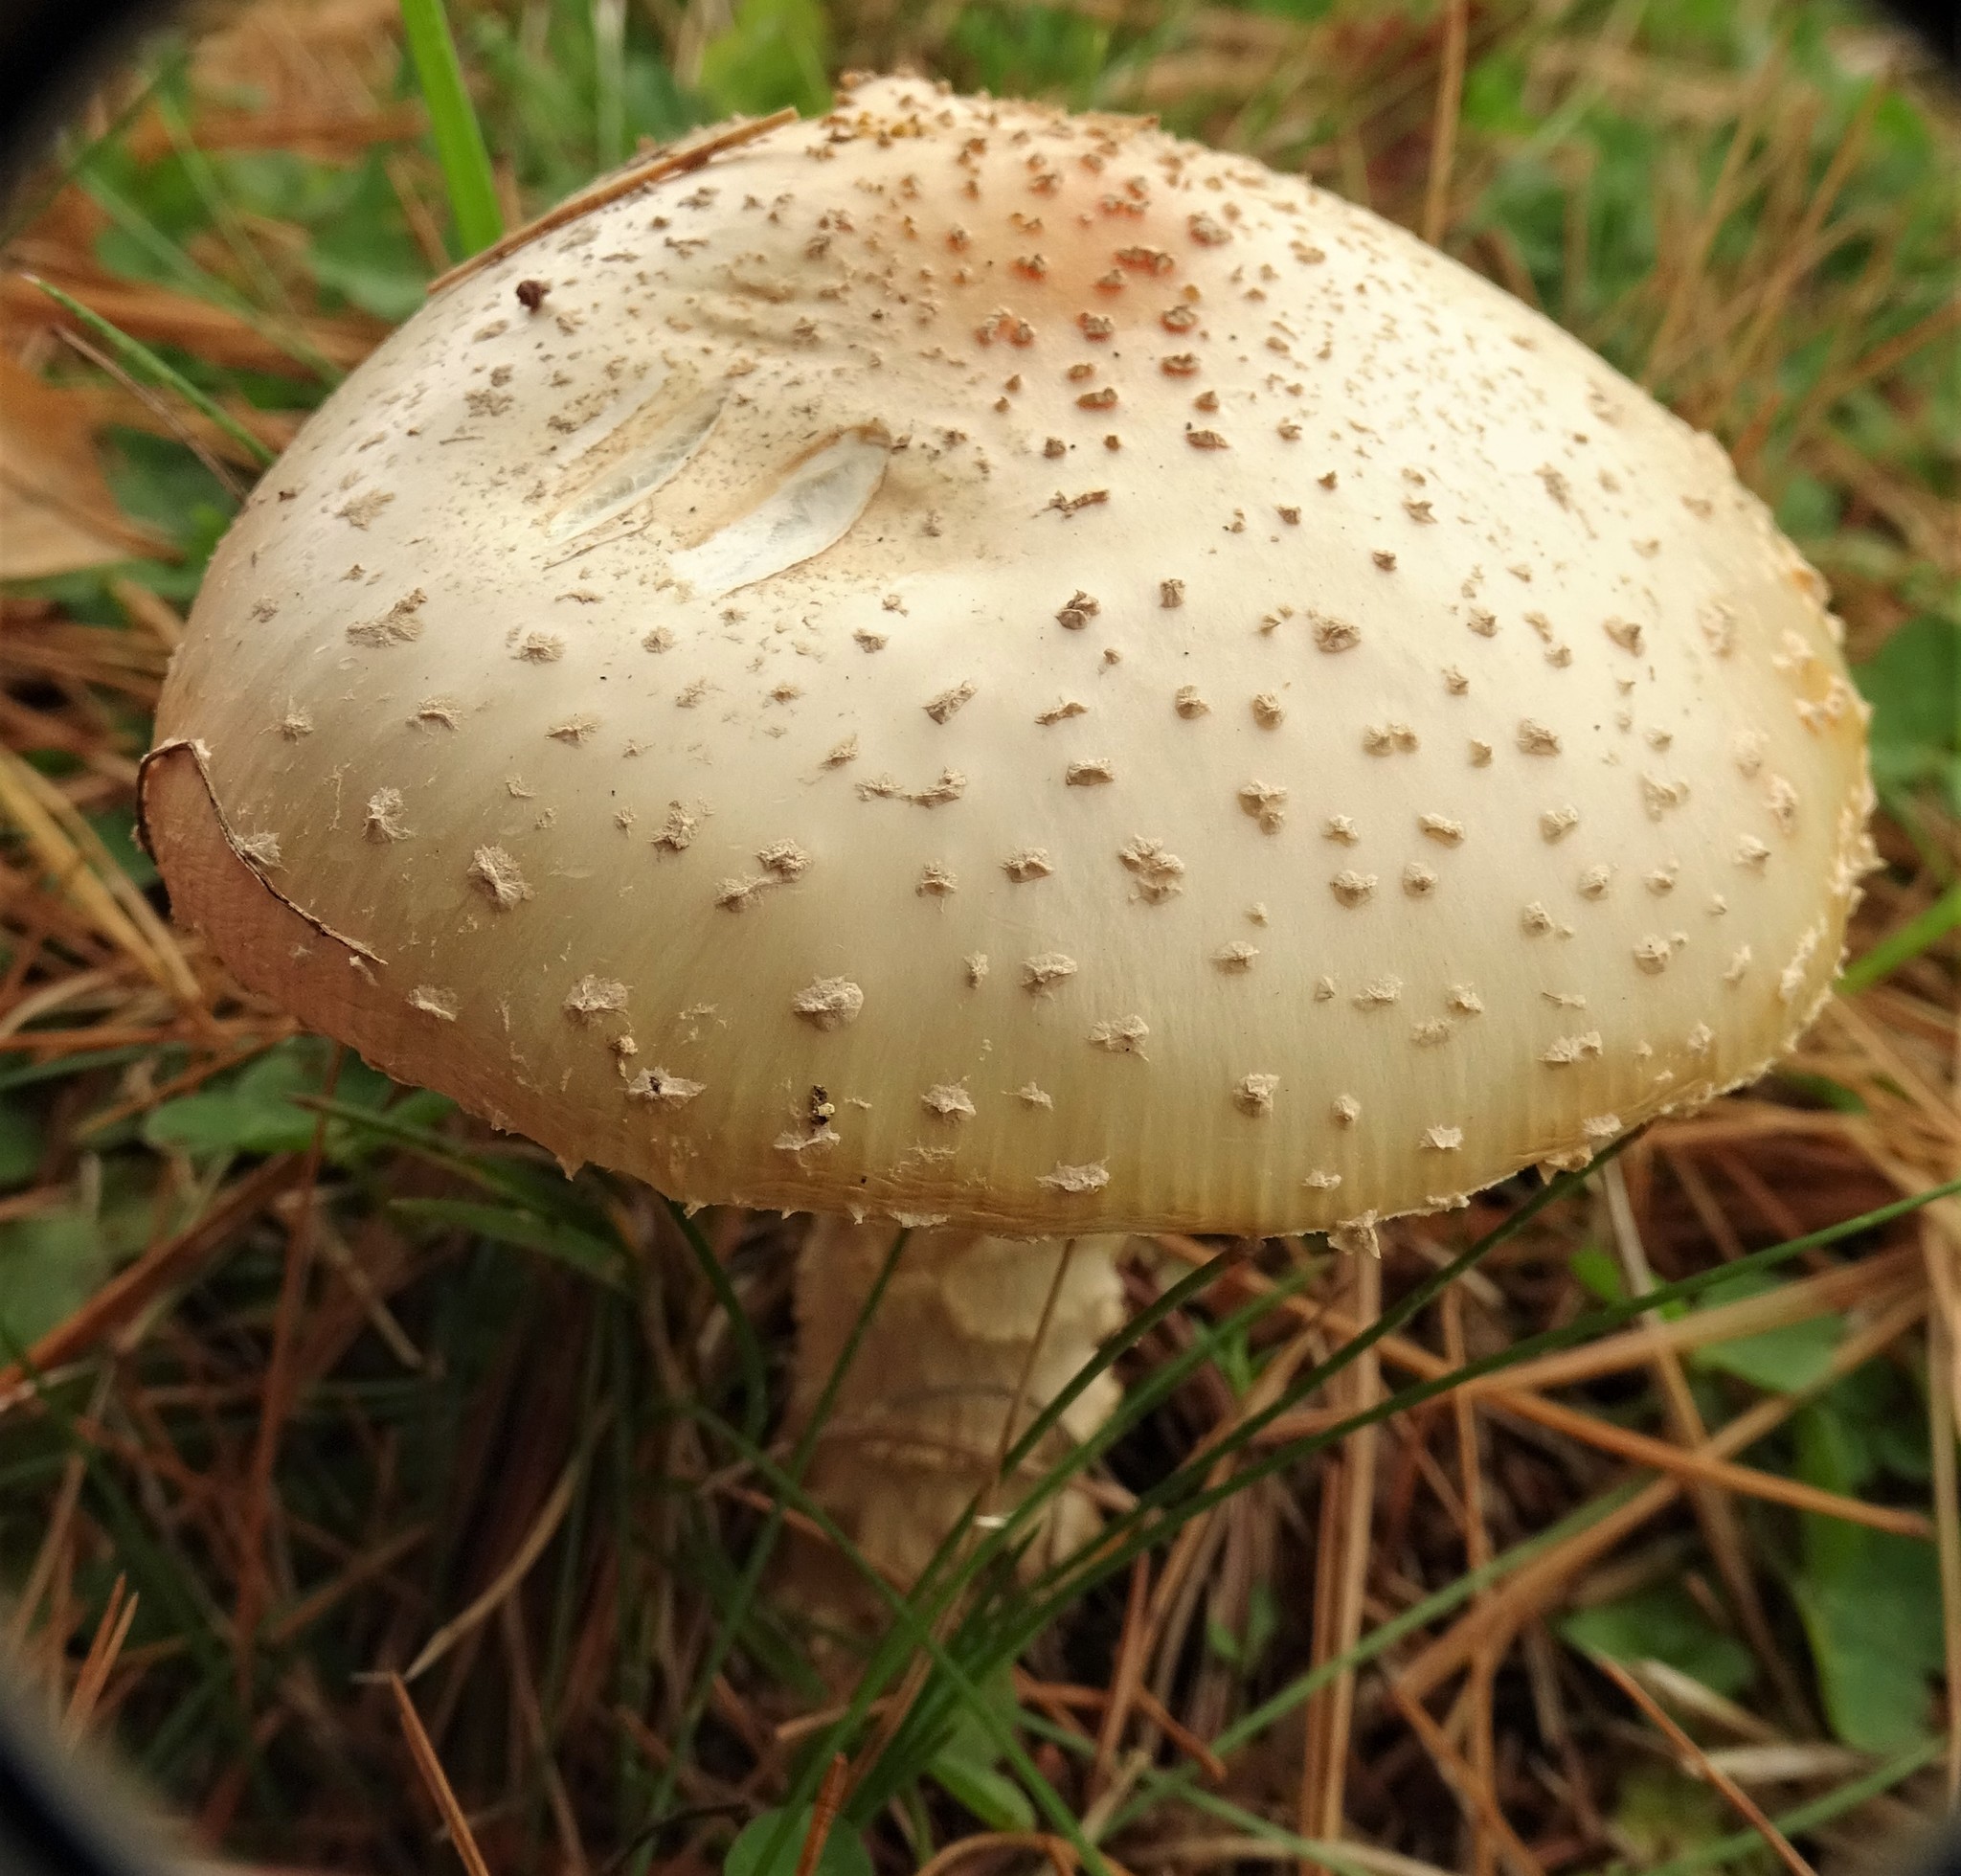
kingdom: Fungi
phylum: Basidiomycota
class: Agaricomycetes
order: Agaricales
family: Amanitaceae
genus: Amanita
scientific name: Amanita muscaria
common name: Fly agaric
